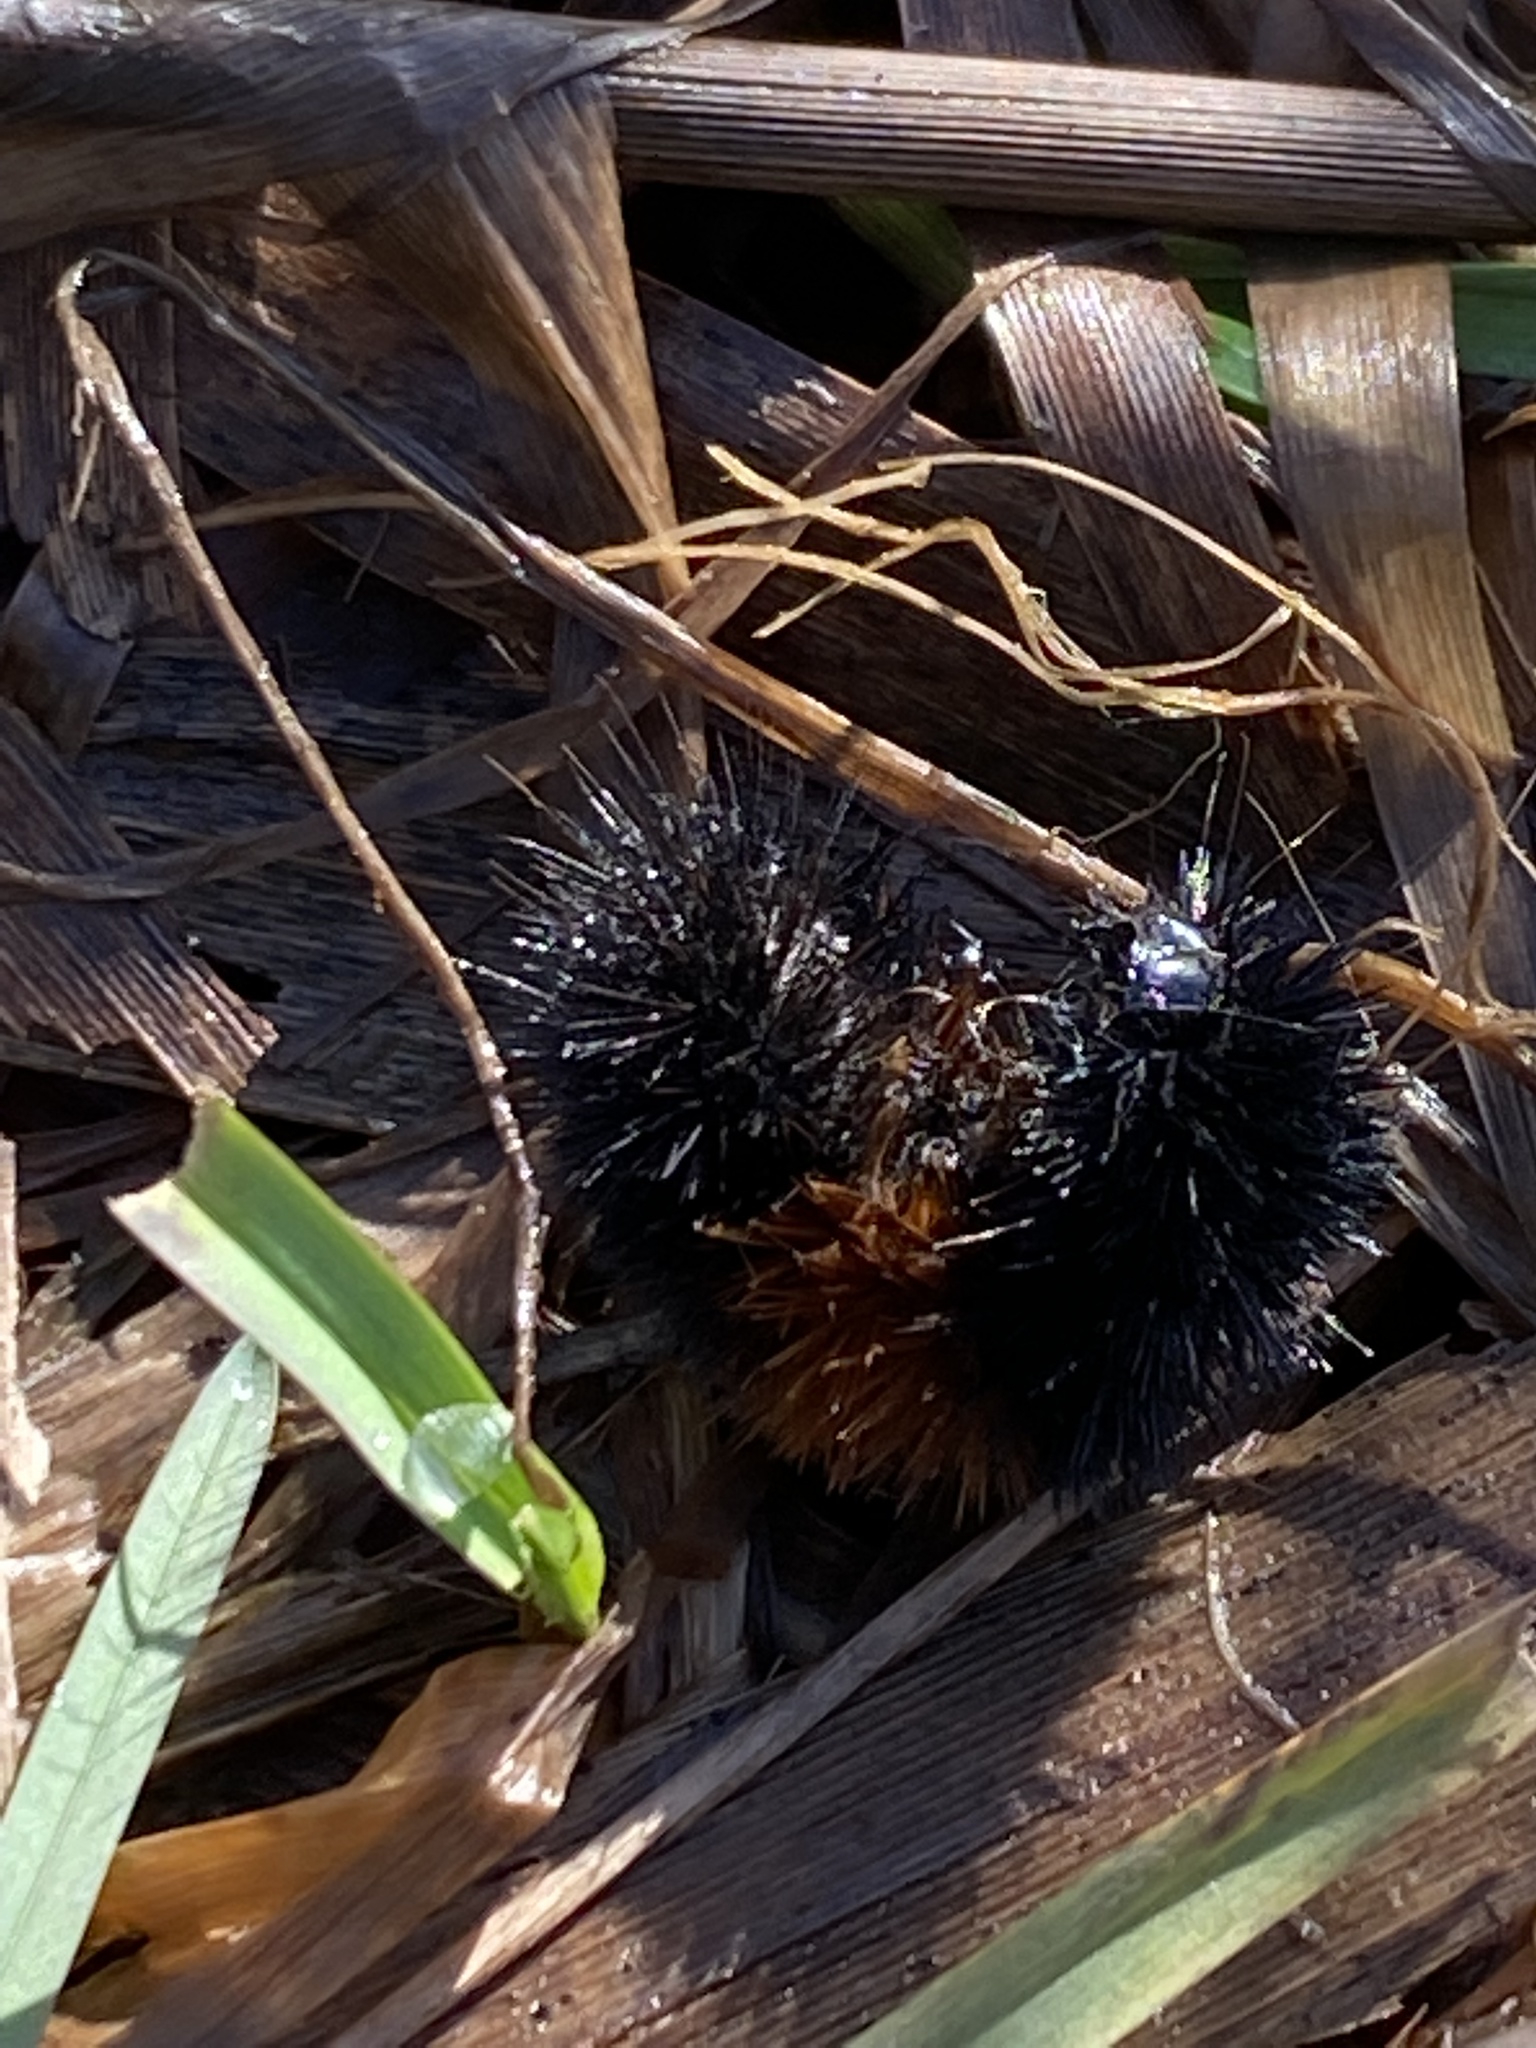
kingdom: Animalia
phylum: Arthropoda
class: Insecta
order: Lepidoptera
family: Erebidae
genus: Pyrrharctia
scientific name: Pyrrharctia isabella
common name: Isabella tiger moth
